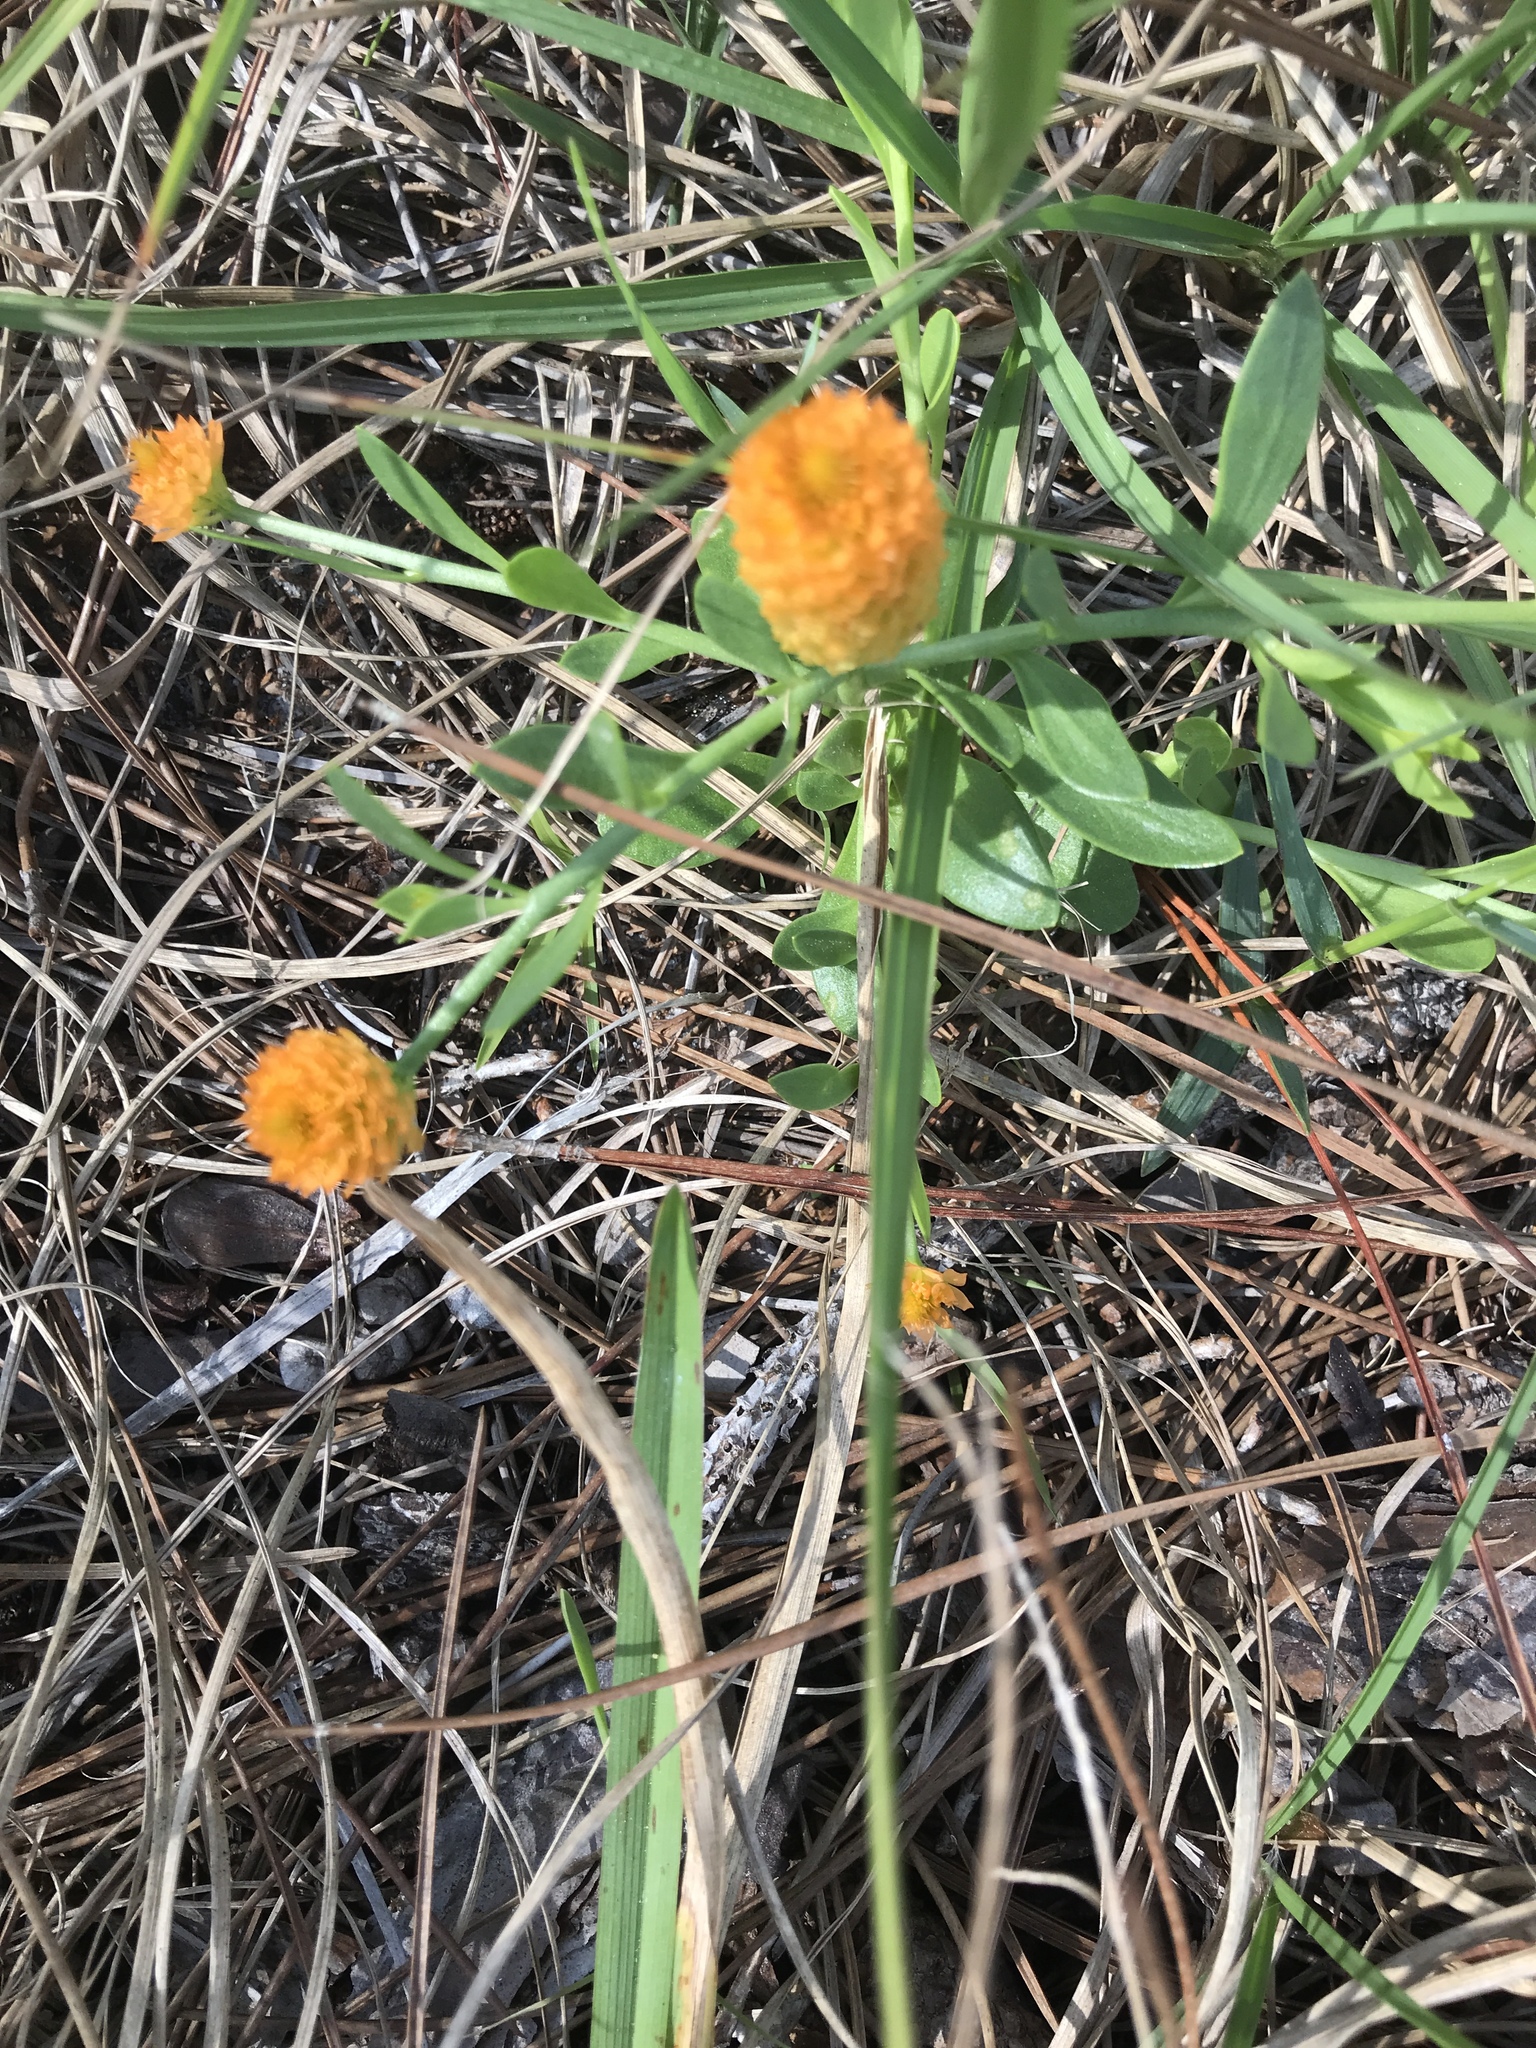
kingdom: Plantae
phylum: Tracheophyta
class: Magnoliopsida
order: Fabales
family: Polygalaceae
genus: Polygala
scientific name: Polygala lutea
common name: Orange milkwort
